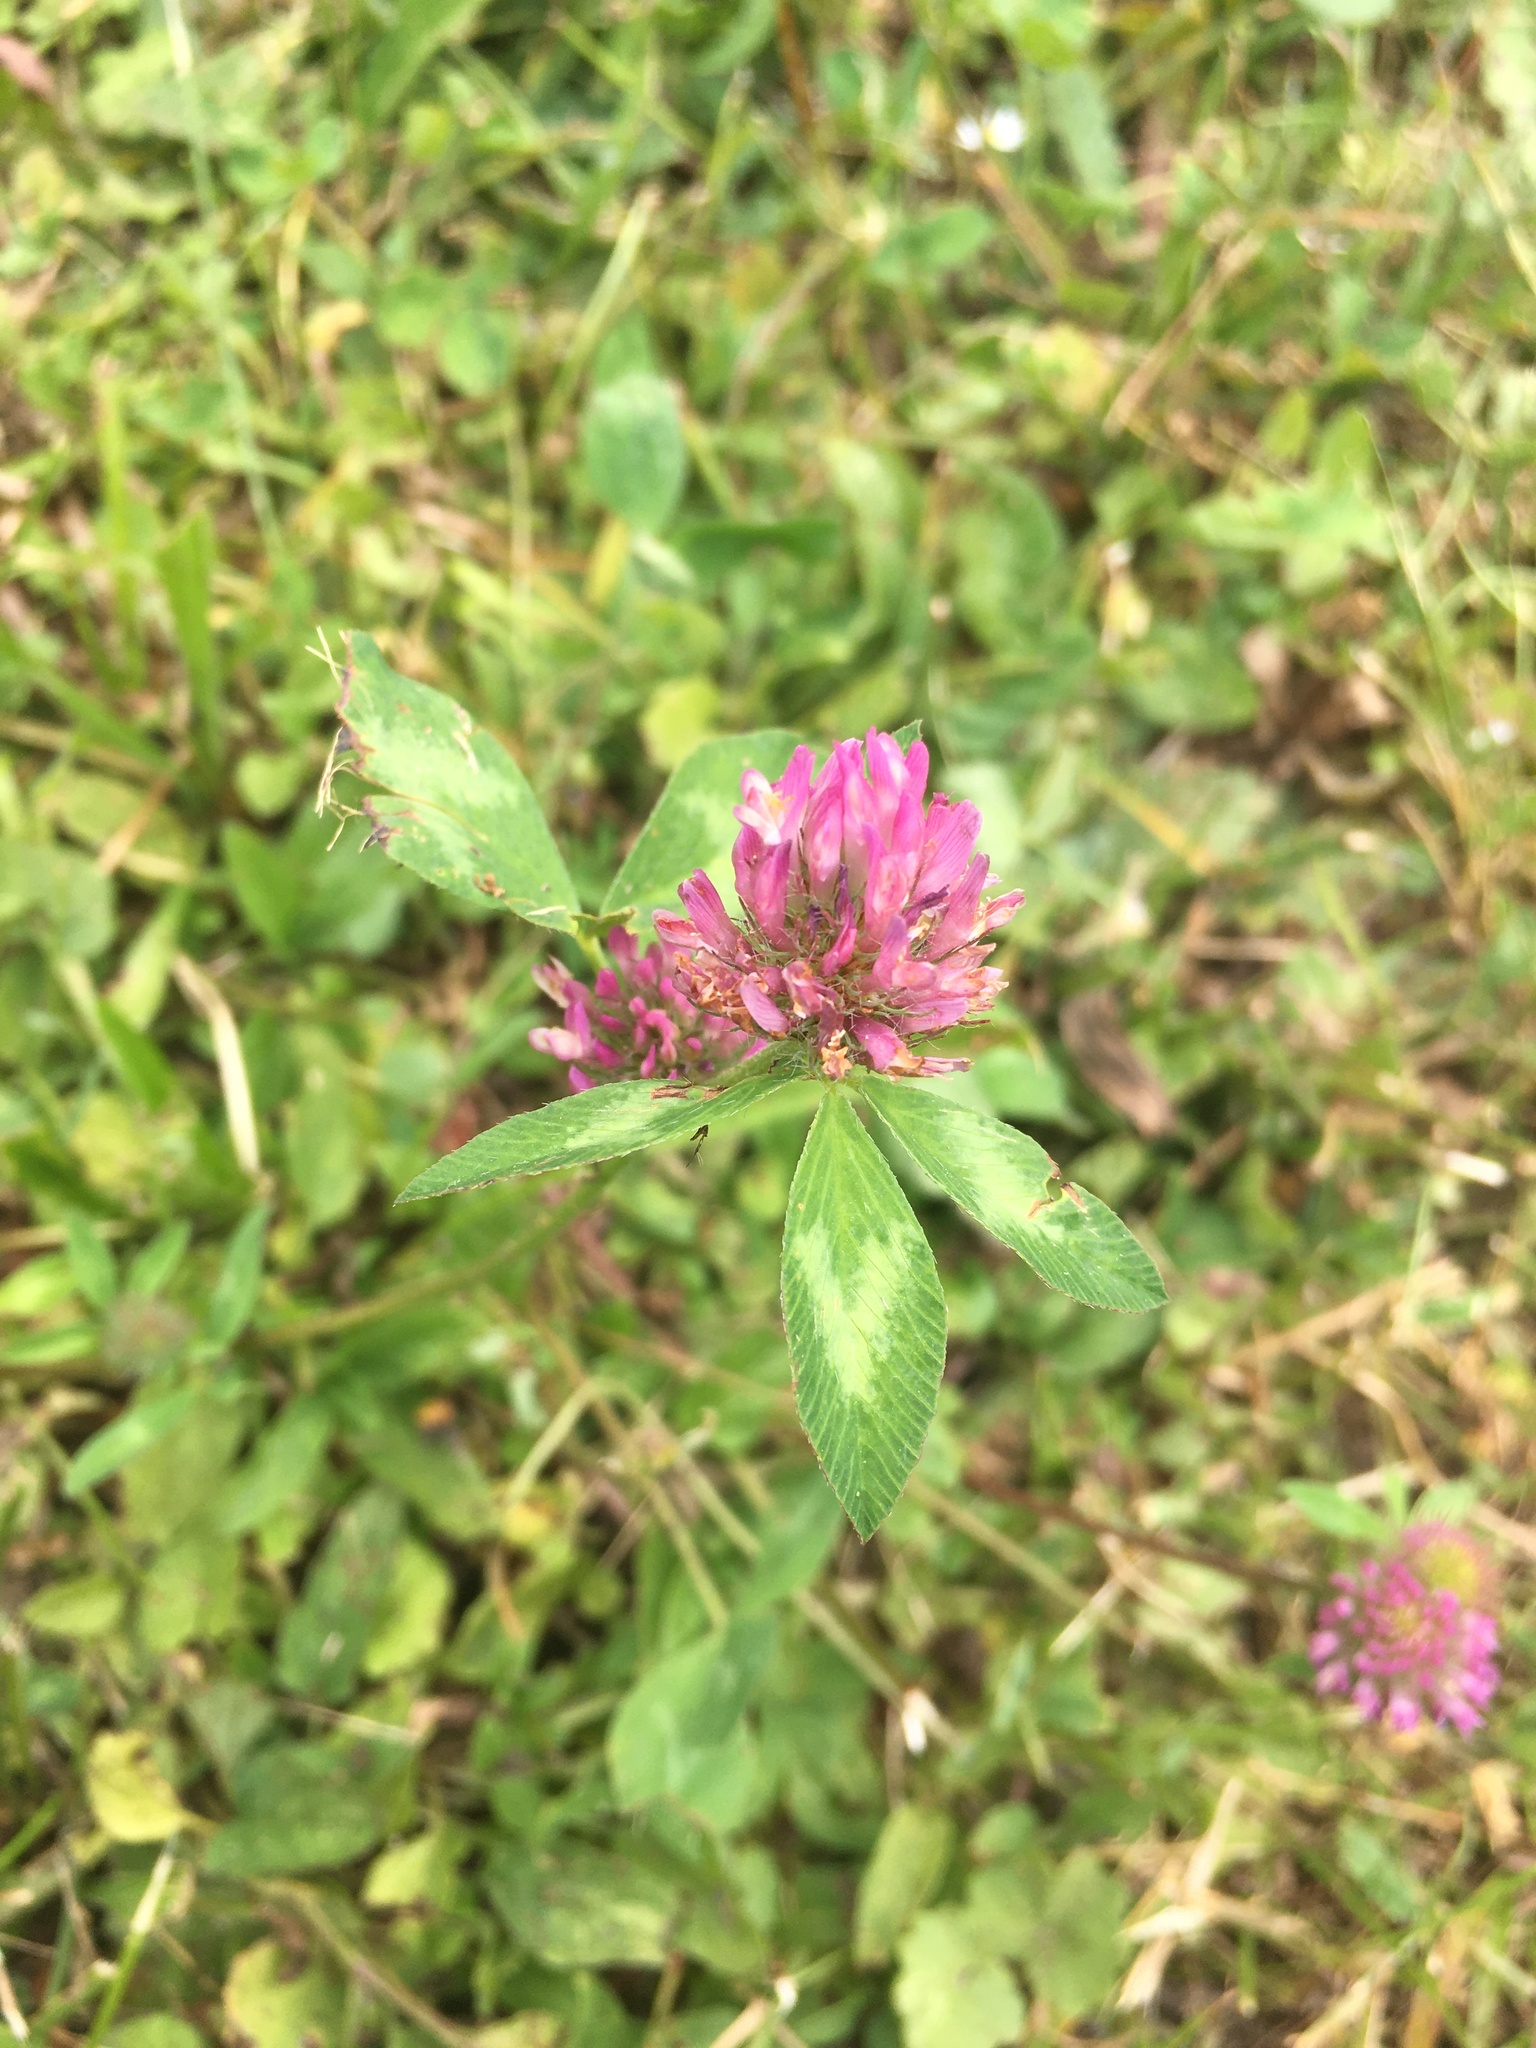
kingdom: Plantae
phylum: Tracheophyta
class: Magnoliopsida
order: Fabales
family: Fabaceae
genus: Trifolium
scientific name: Trifolium pratense
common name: Red clover
